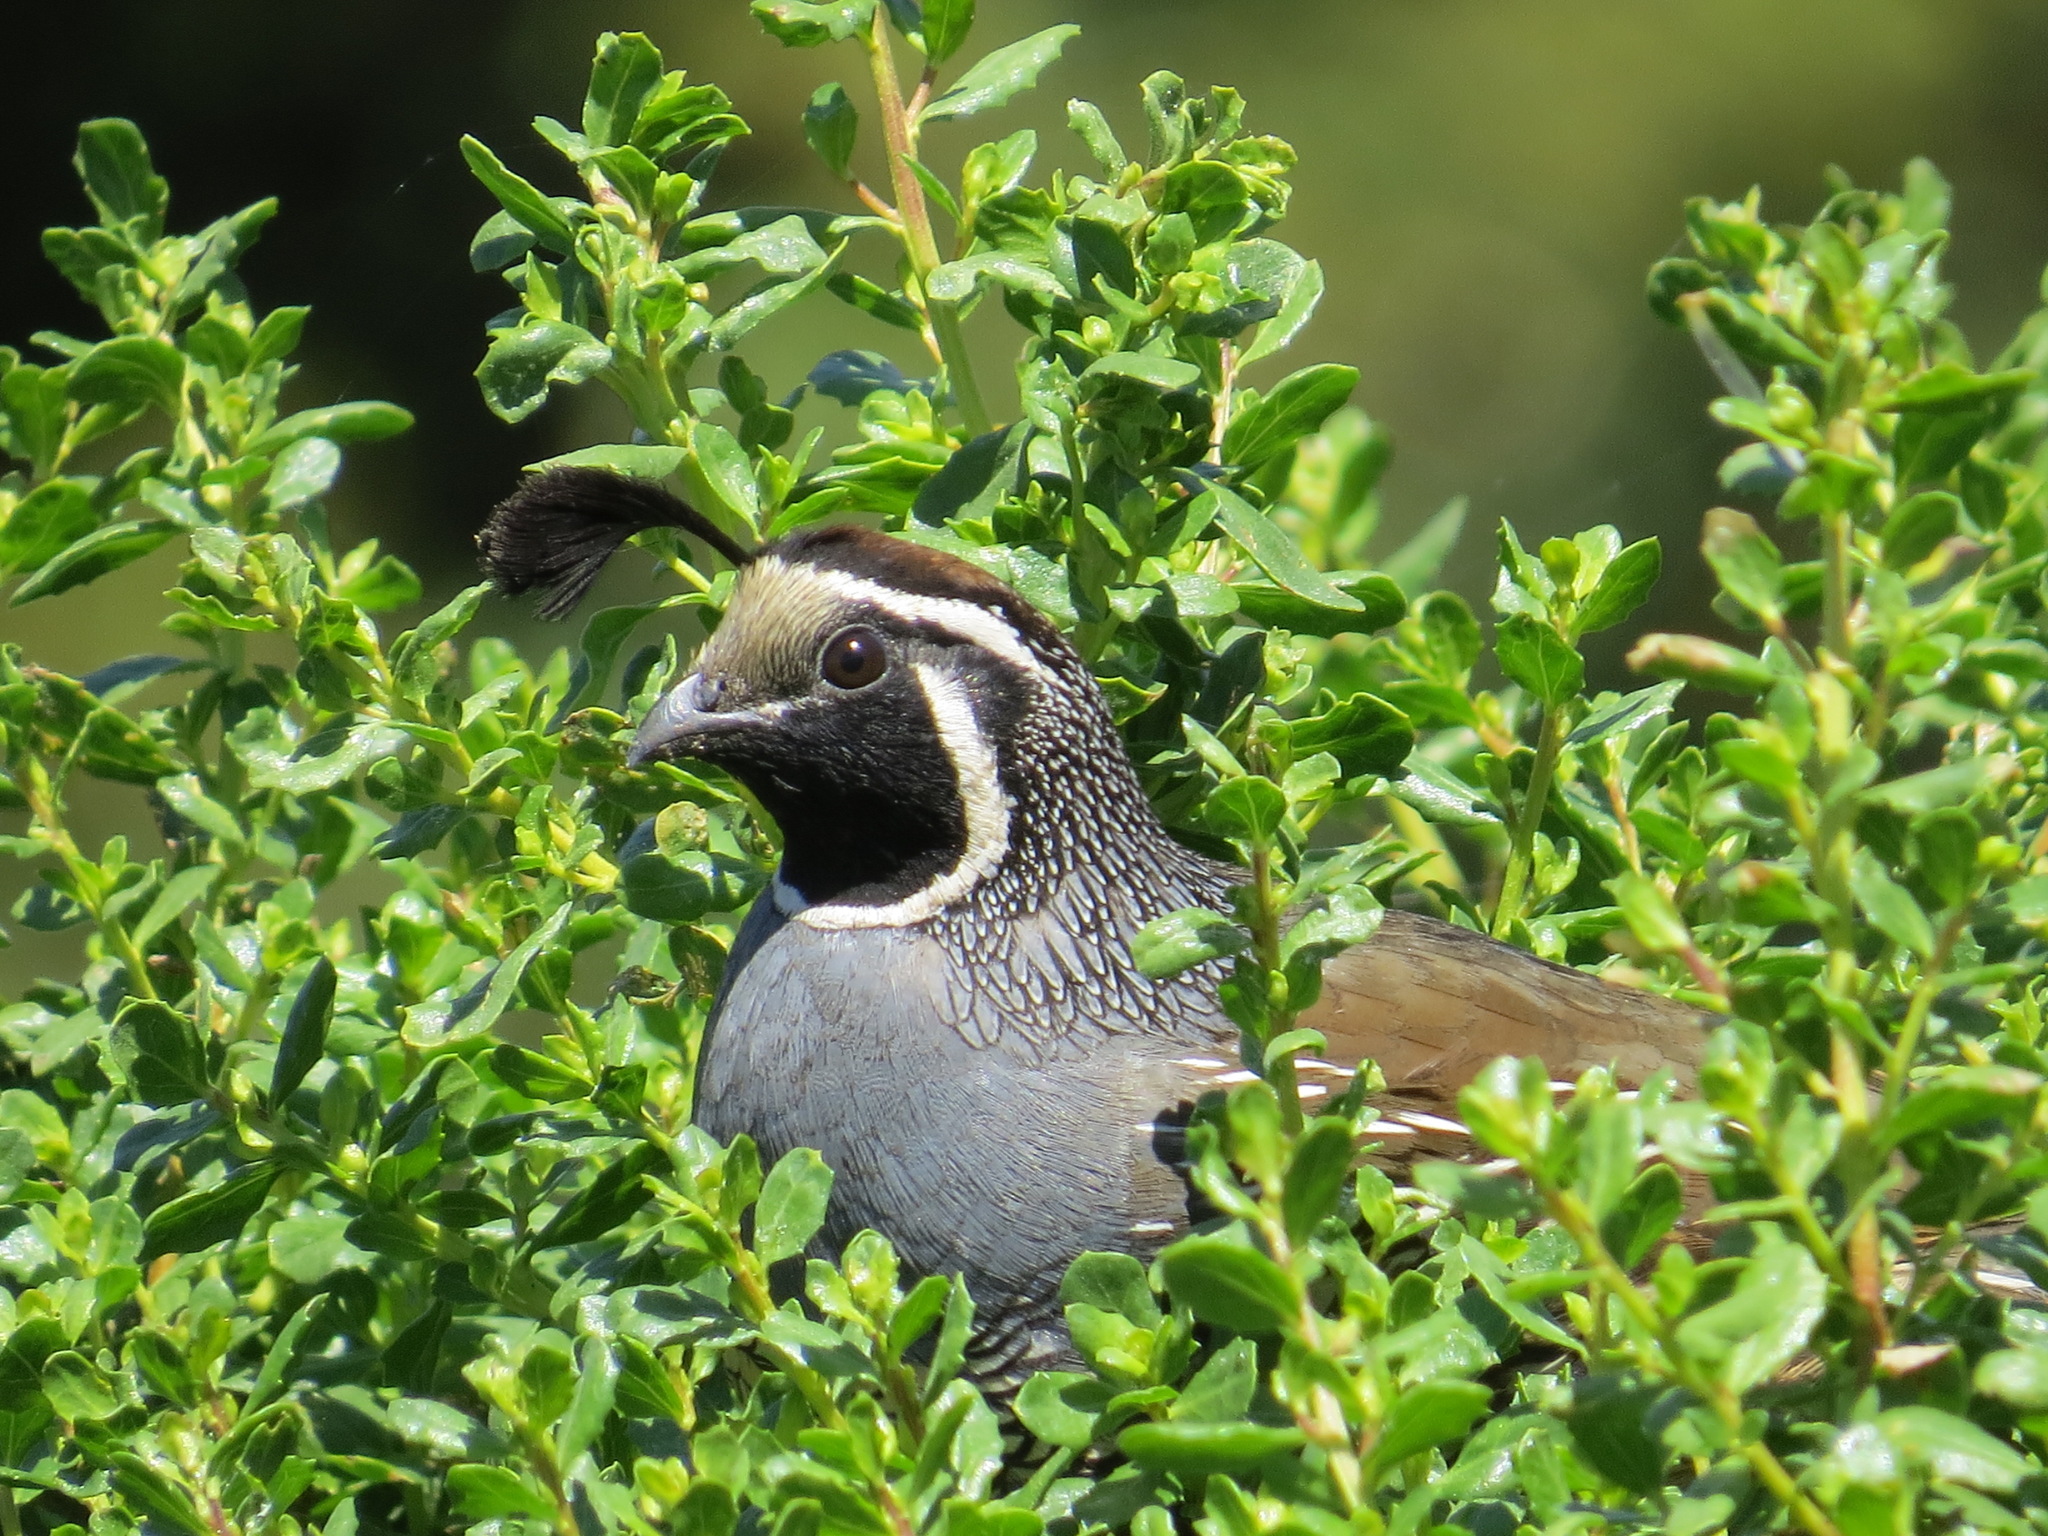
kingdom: Animalia
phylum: Chordata
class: Aves
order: Galliformes
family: Odontophoridae
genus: Callipepla
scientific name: Callipepla californica
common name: California quail
